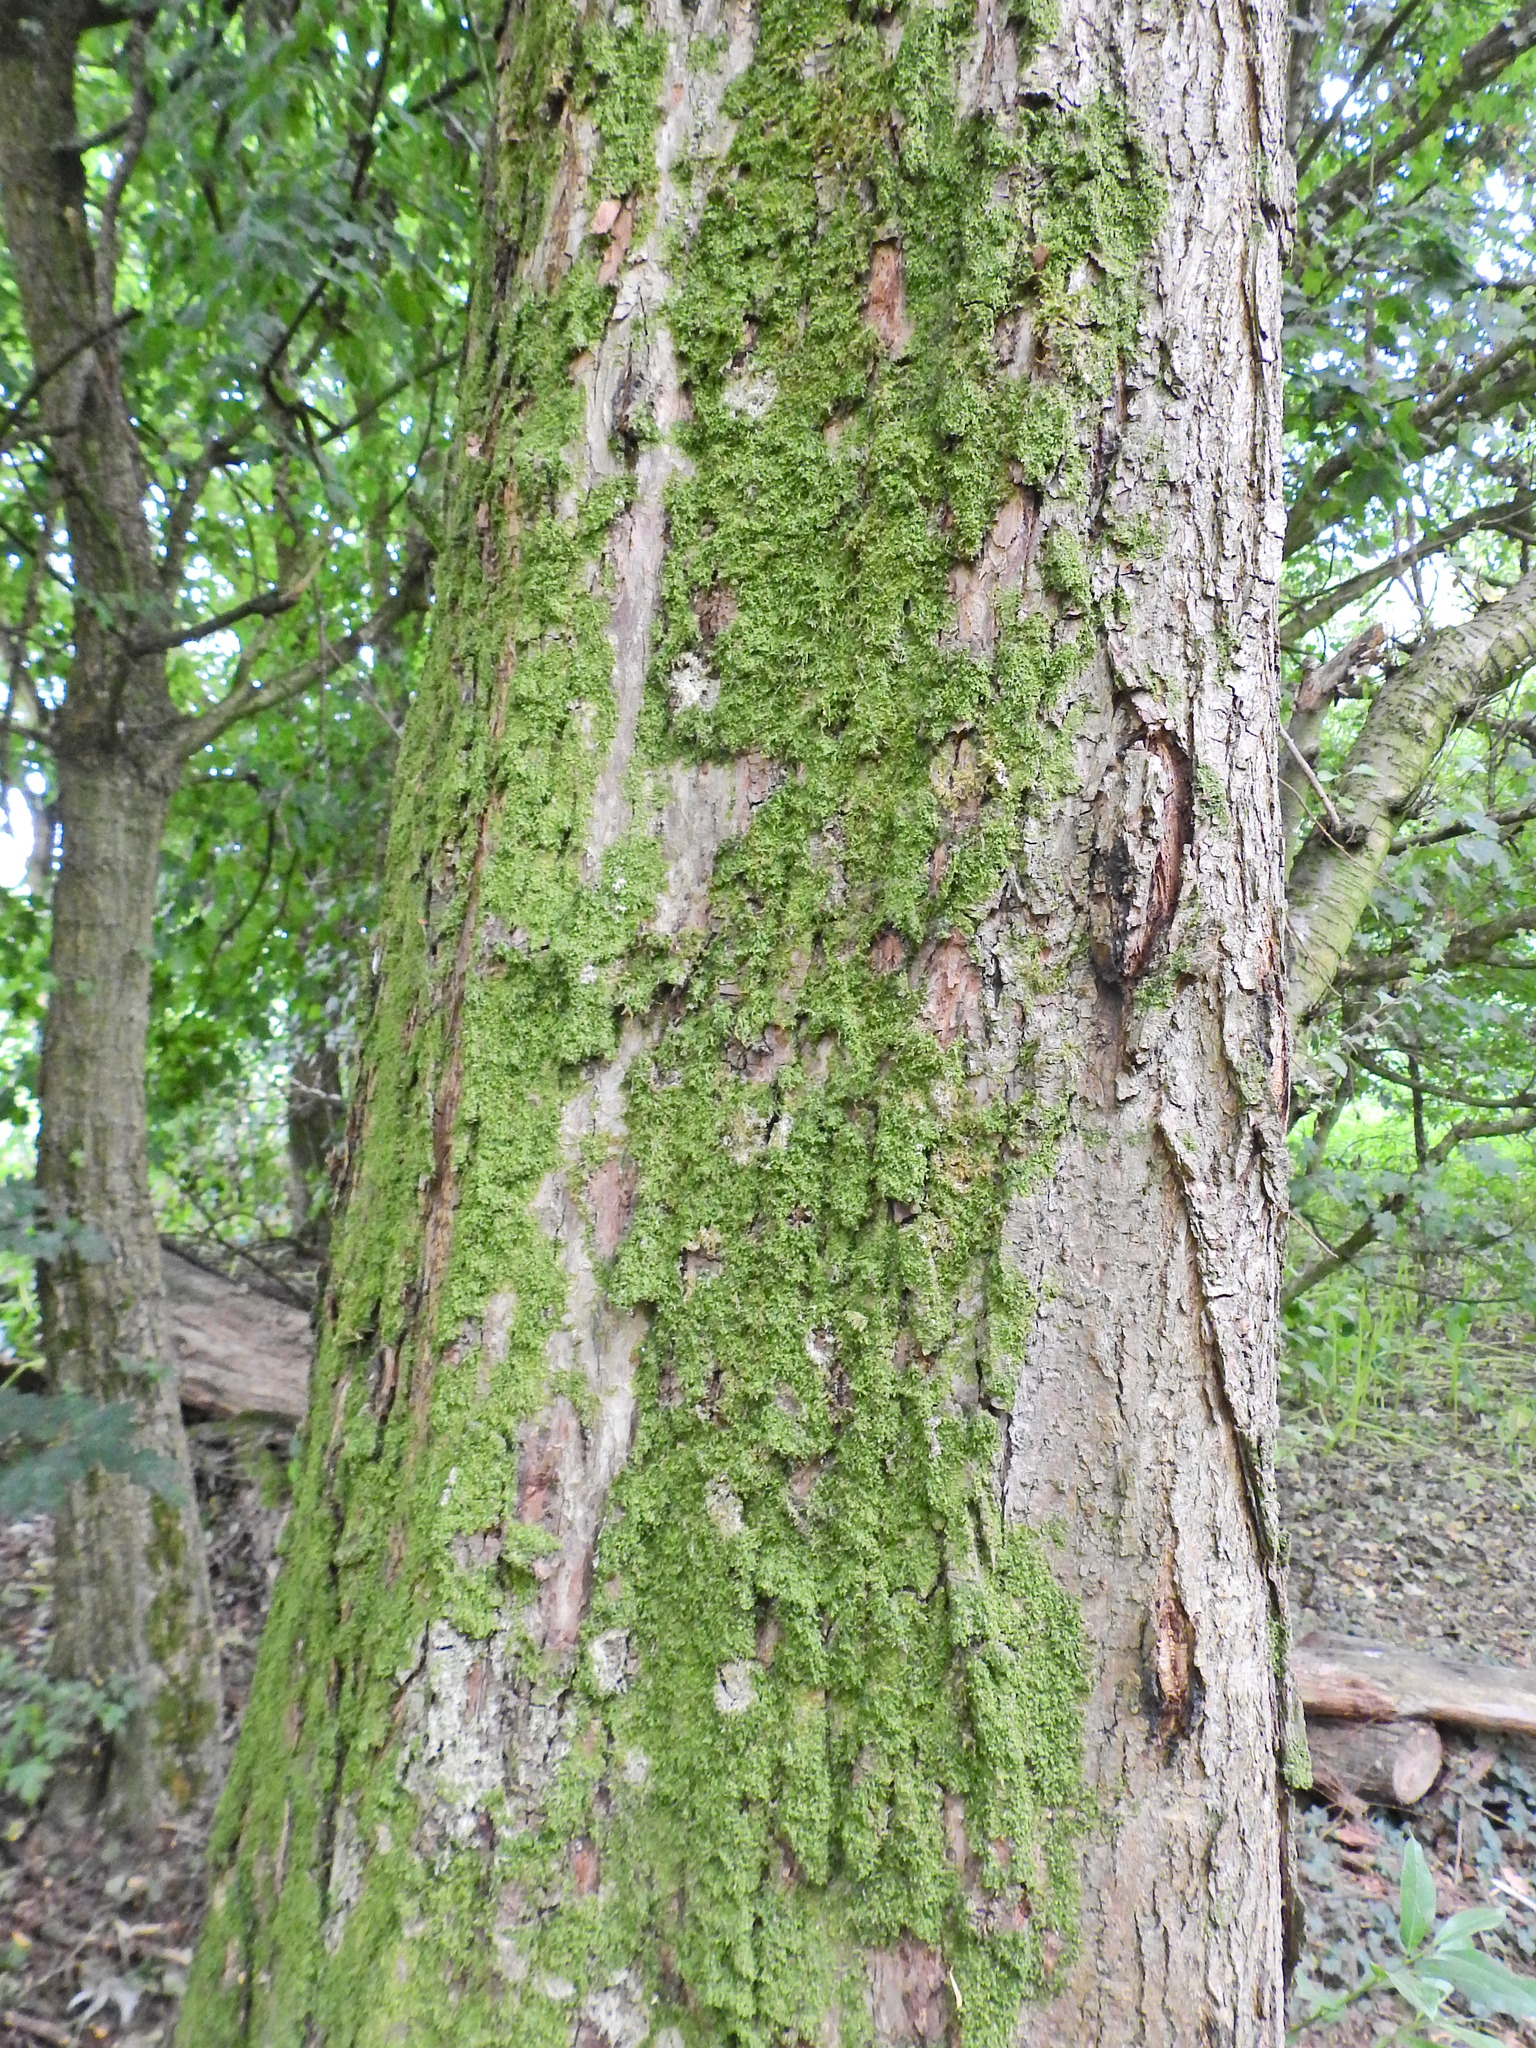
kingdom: Plantae
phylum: Marchantiophyta
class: Jungermanniopsida
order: Metzgeriales
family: Metzgeriaceae
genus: Metzgeria
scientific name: Metzgeria furcata
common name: Forked veilwort
